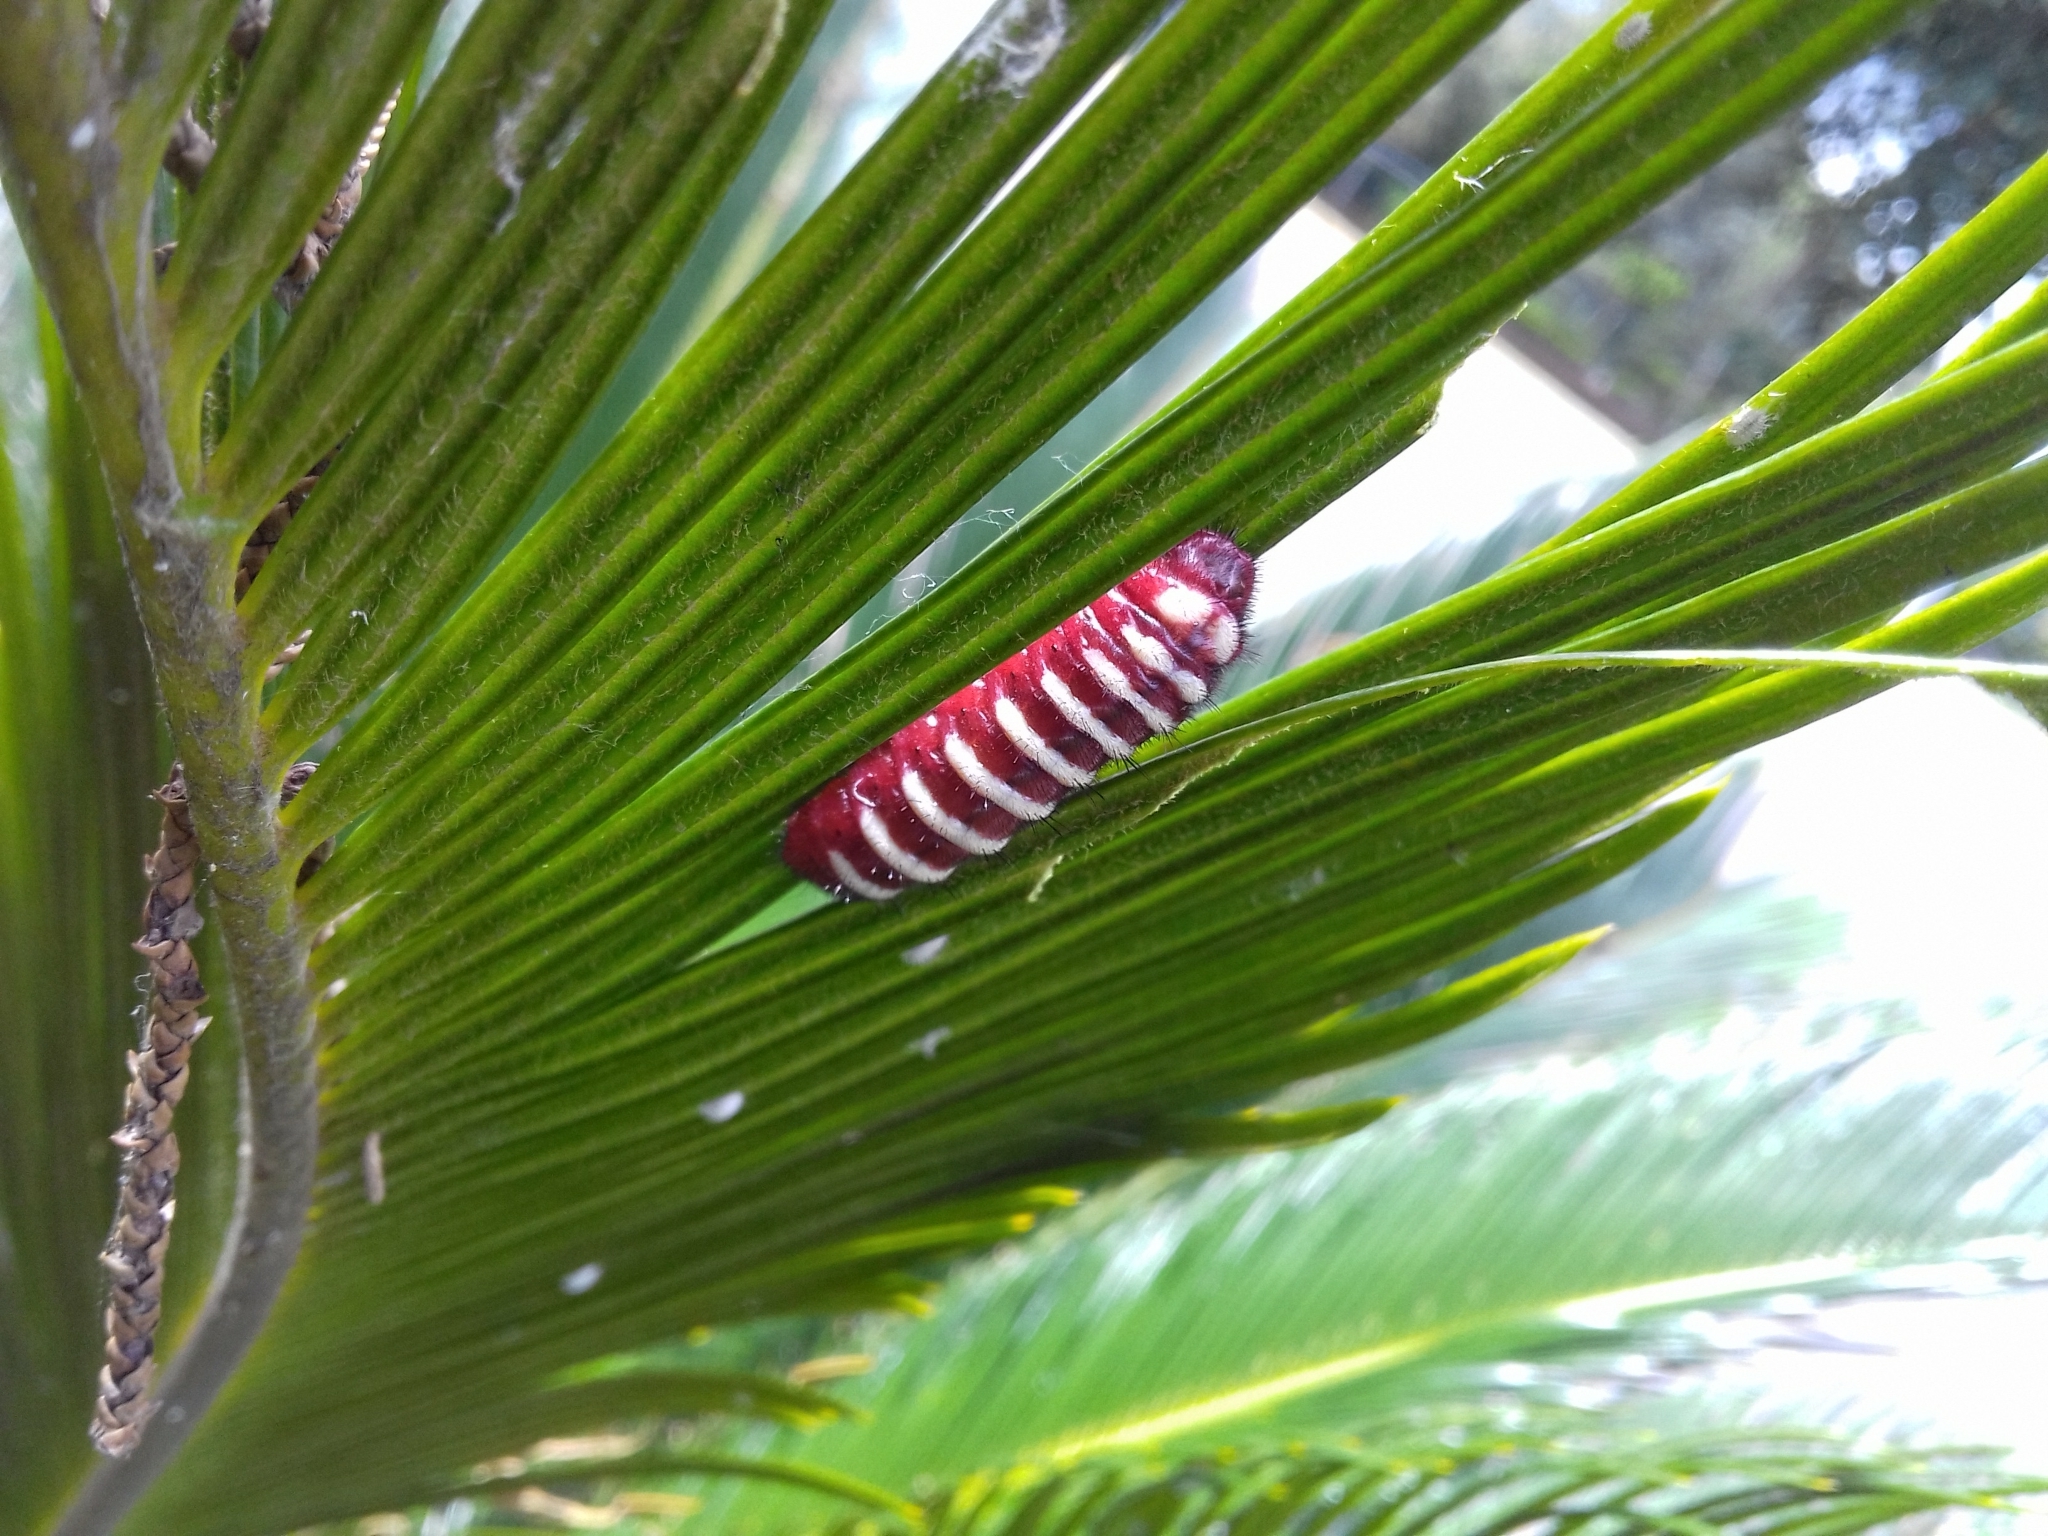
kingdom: Animalia
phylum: Arthropoda
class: Insecta
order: Lepidoptera
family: Lycaenidae
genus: Eumaeus
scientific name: Eumaeus childrenae
